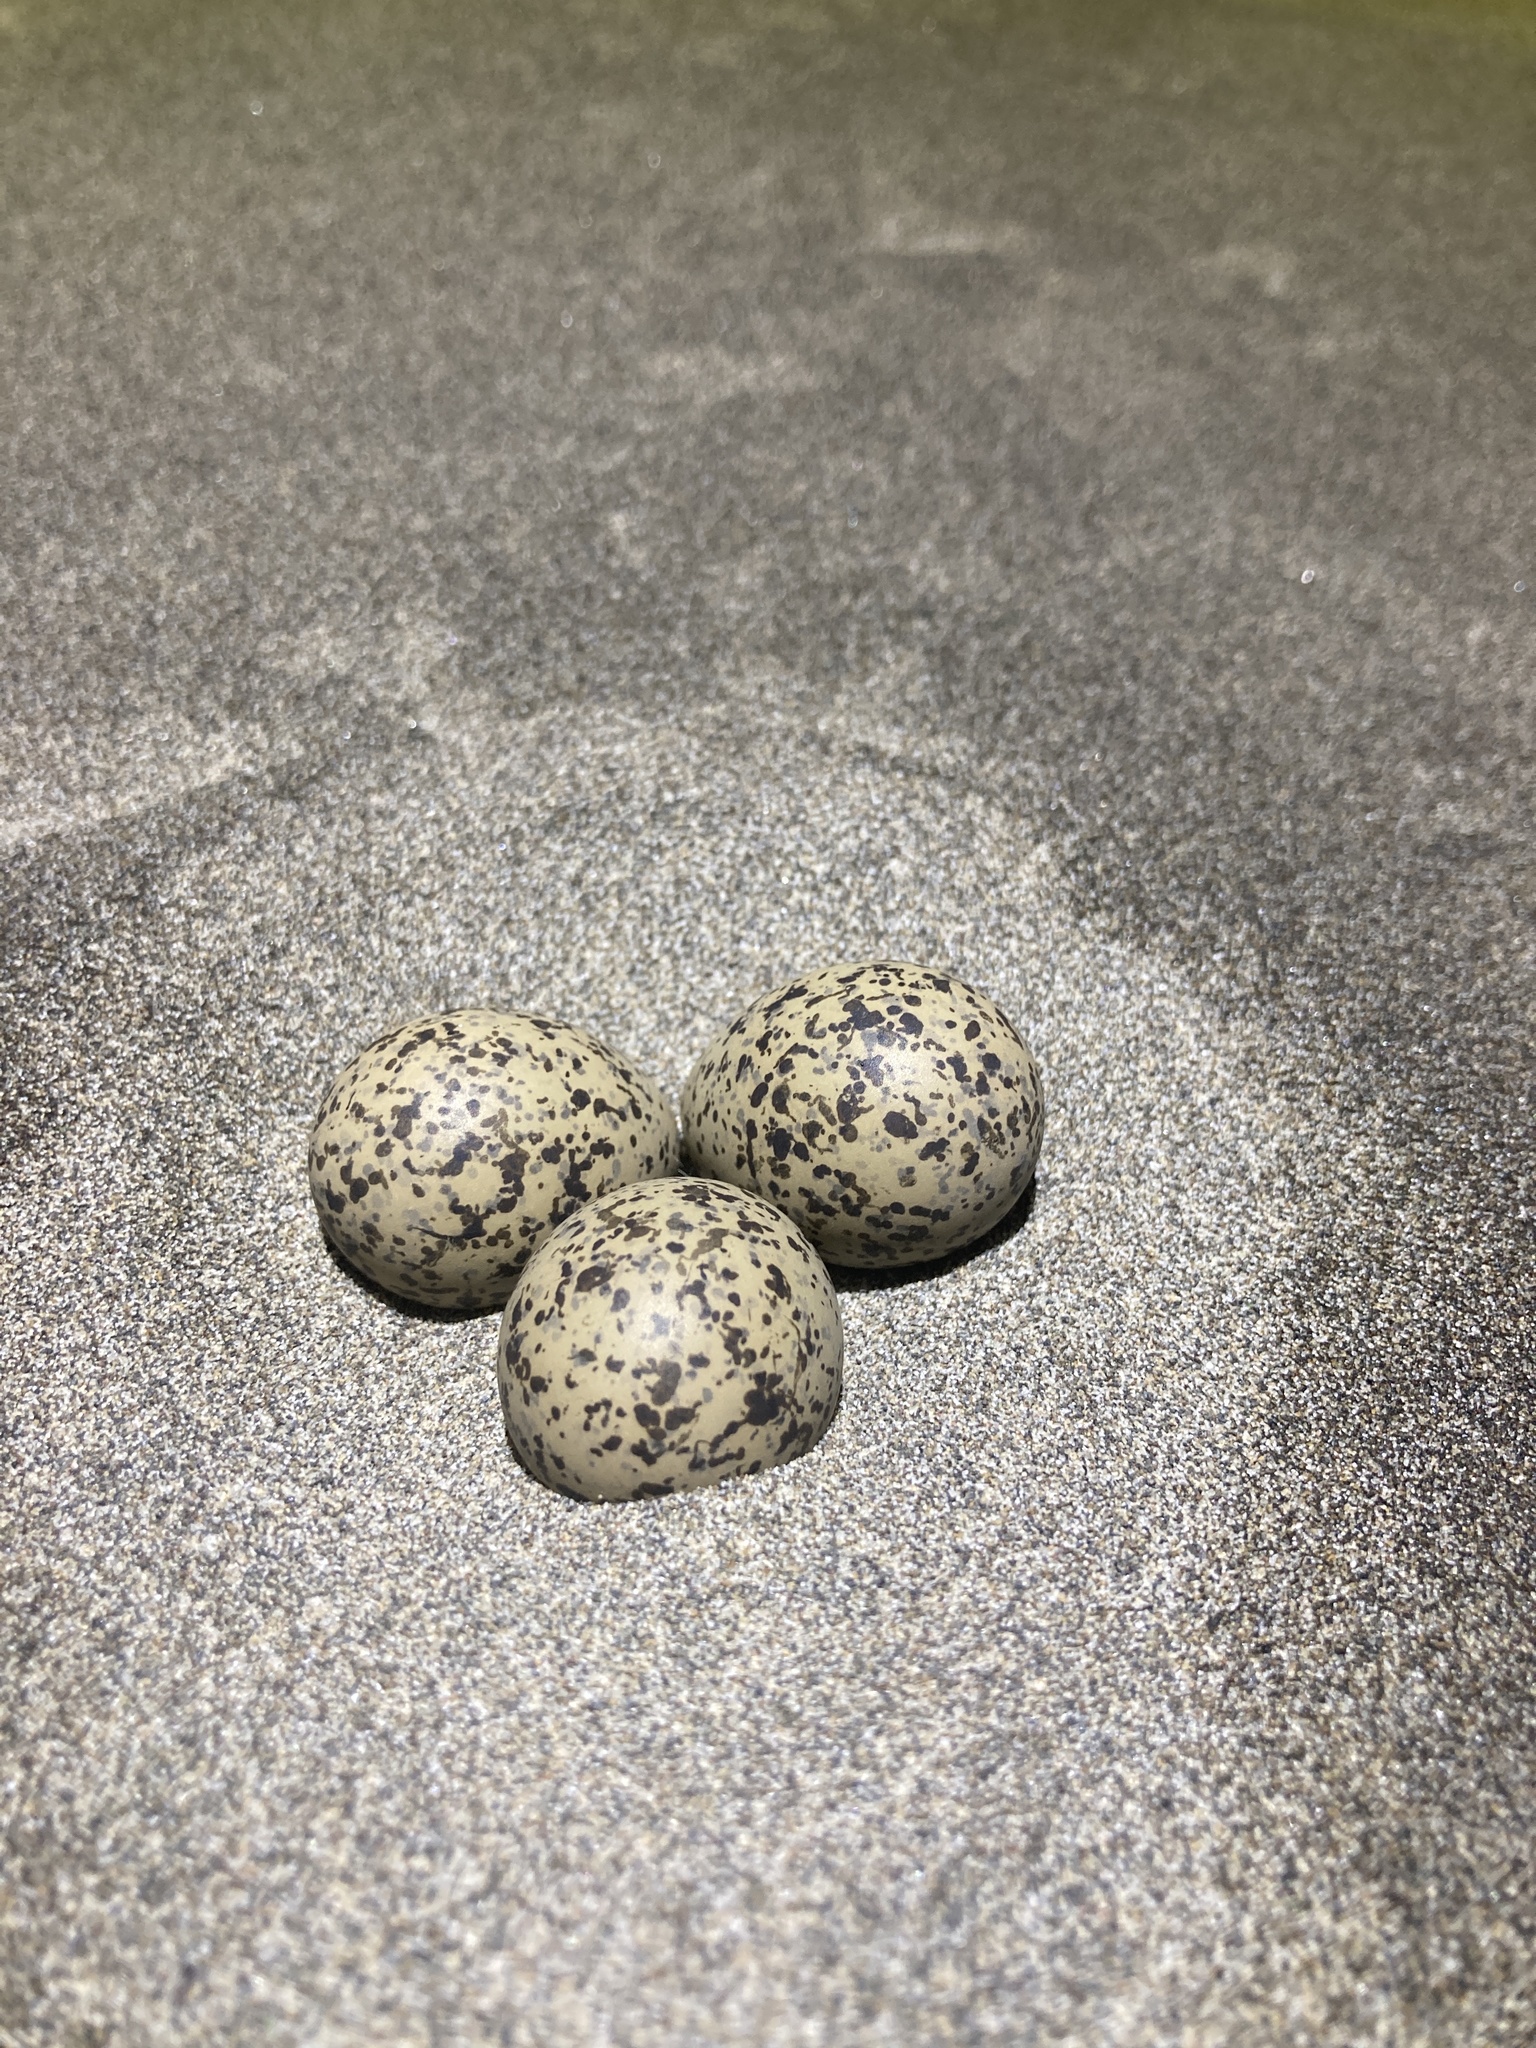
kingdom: Animalia
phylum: Chordata
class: Aves
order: Charadriiformes
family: Charadriidae
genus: Charadrius
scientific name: Charadrius alexandrinus
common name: Kentish plover
